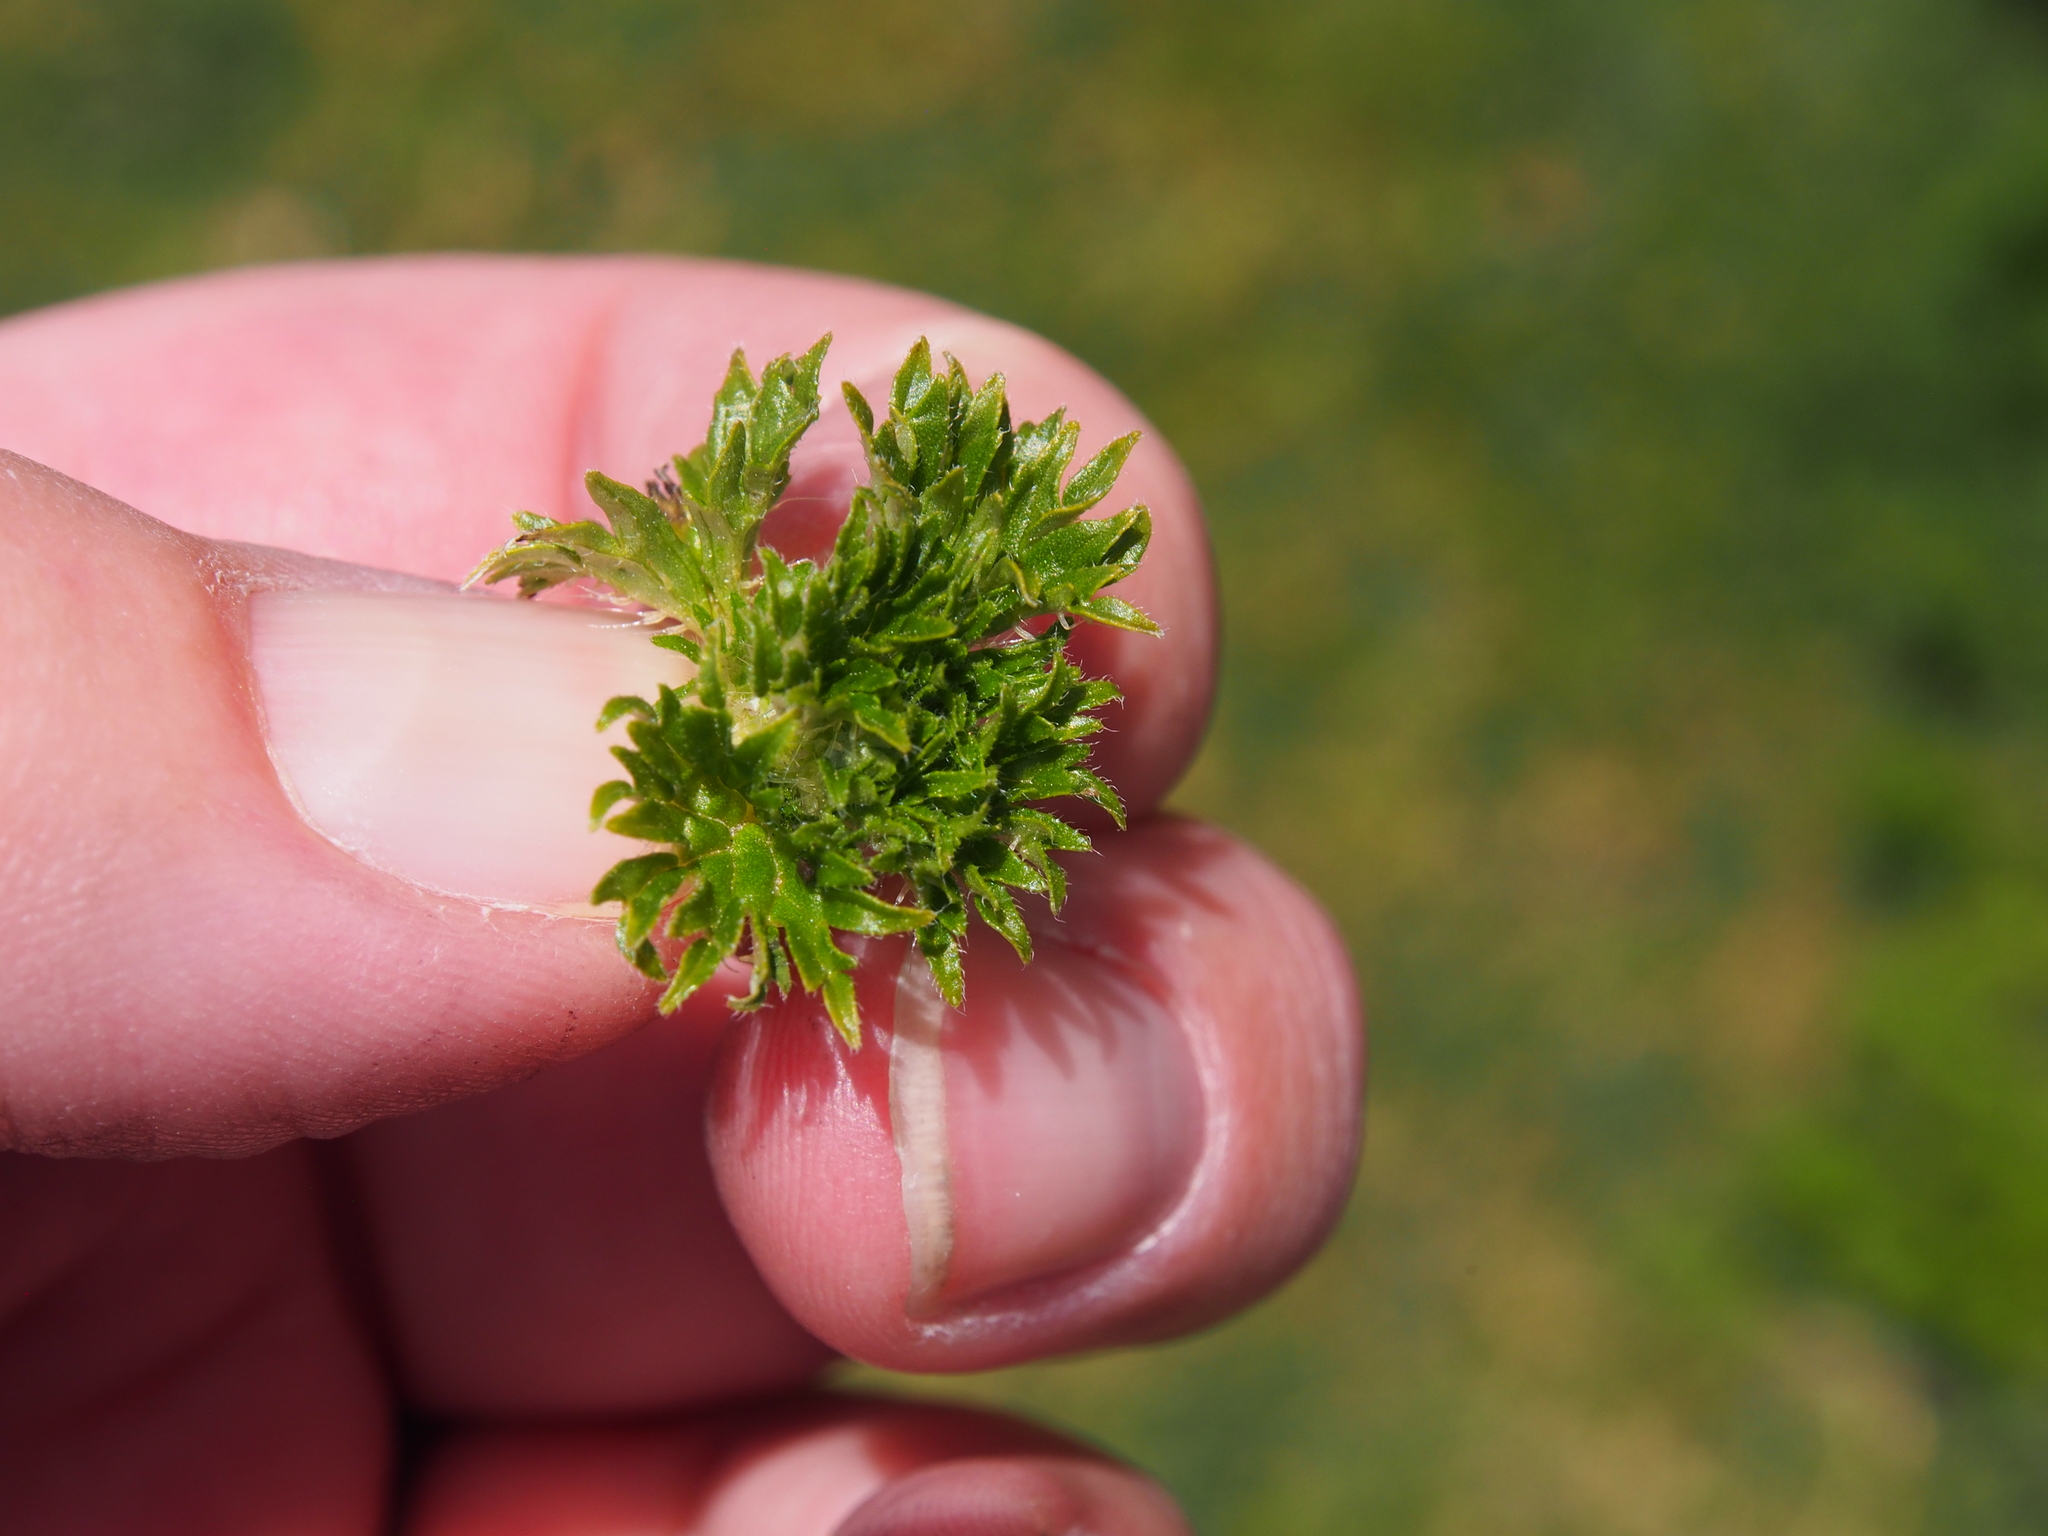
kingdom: Plantae
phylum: Tracheophyta
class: Magnoliopsida
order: Rosales
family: Urticaceae
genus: Urtica
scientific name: Urtica flabellata
